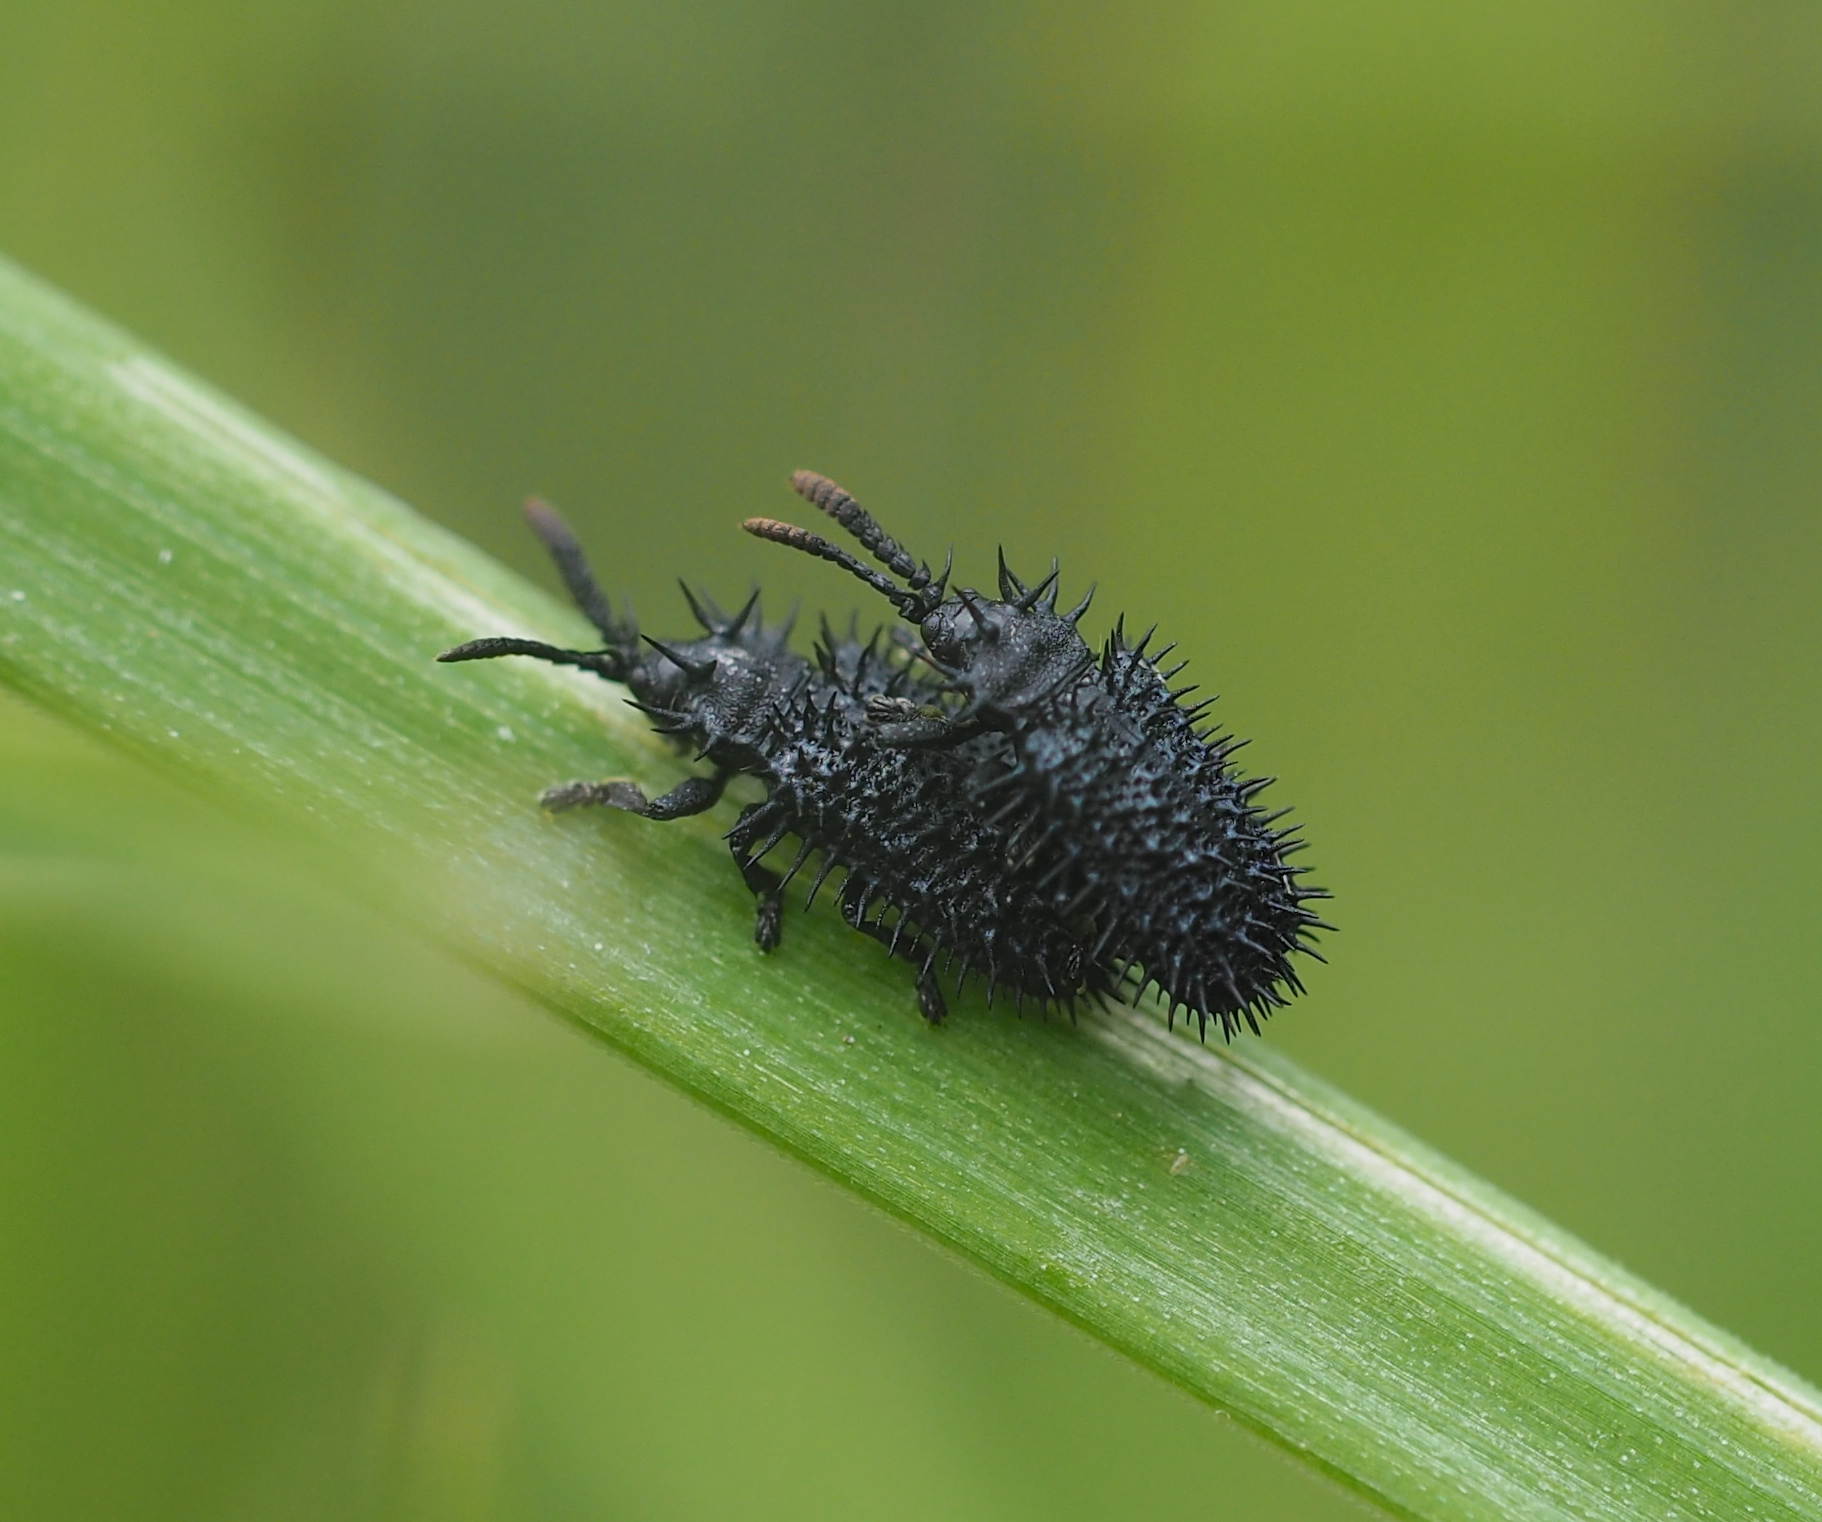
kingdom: Animalia
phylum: Arthropoda
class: Insecta
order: Coleoptera
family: Chrysomelidae
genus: Hispa
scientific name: Hispa atra
